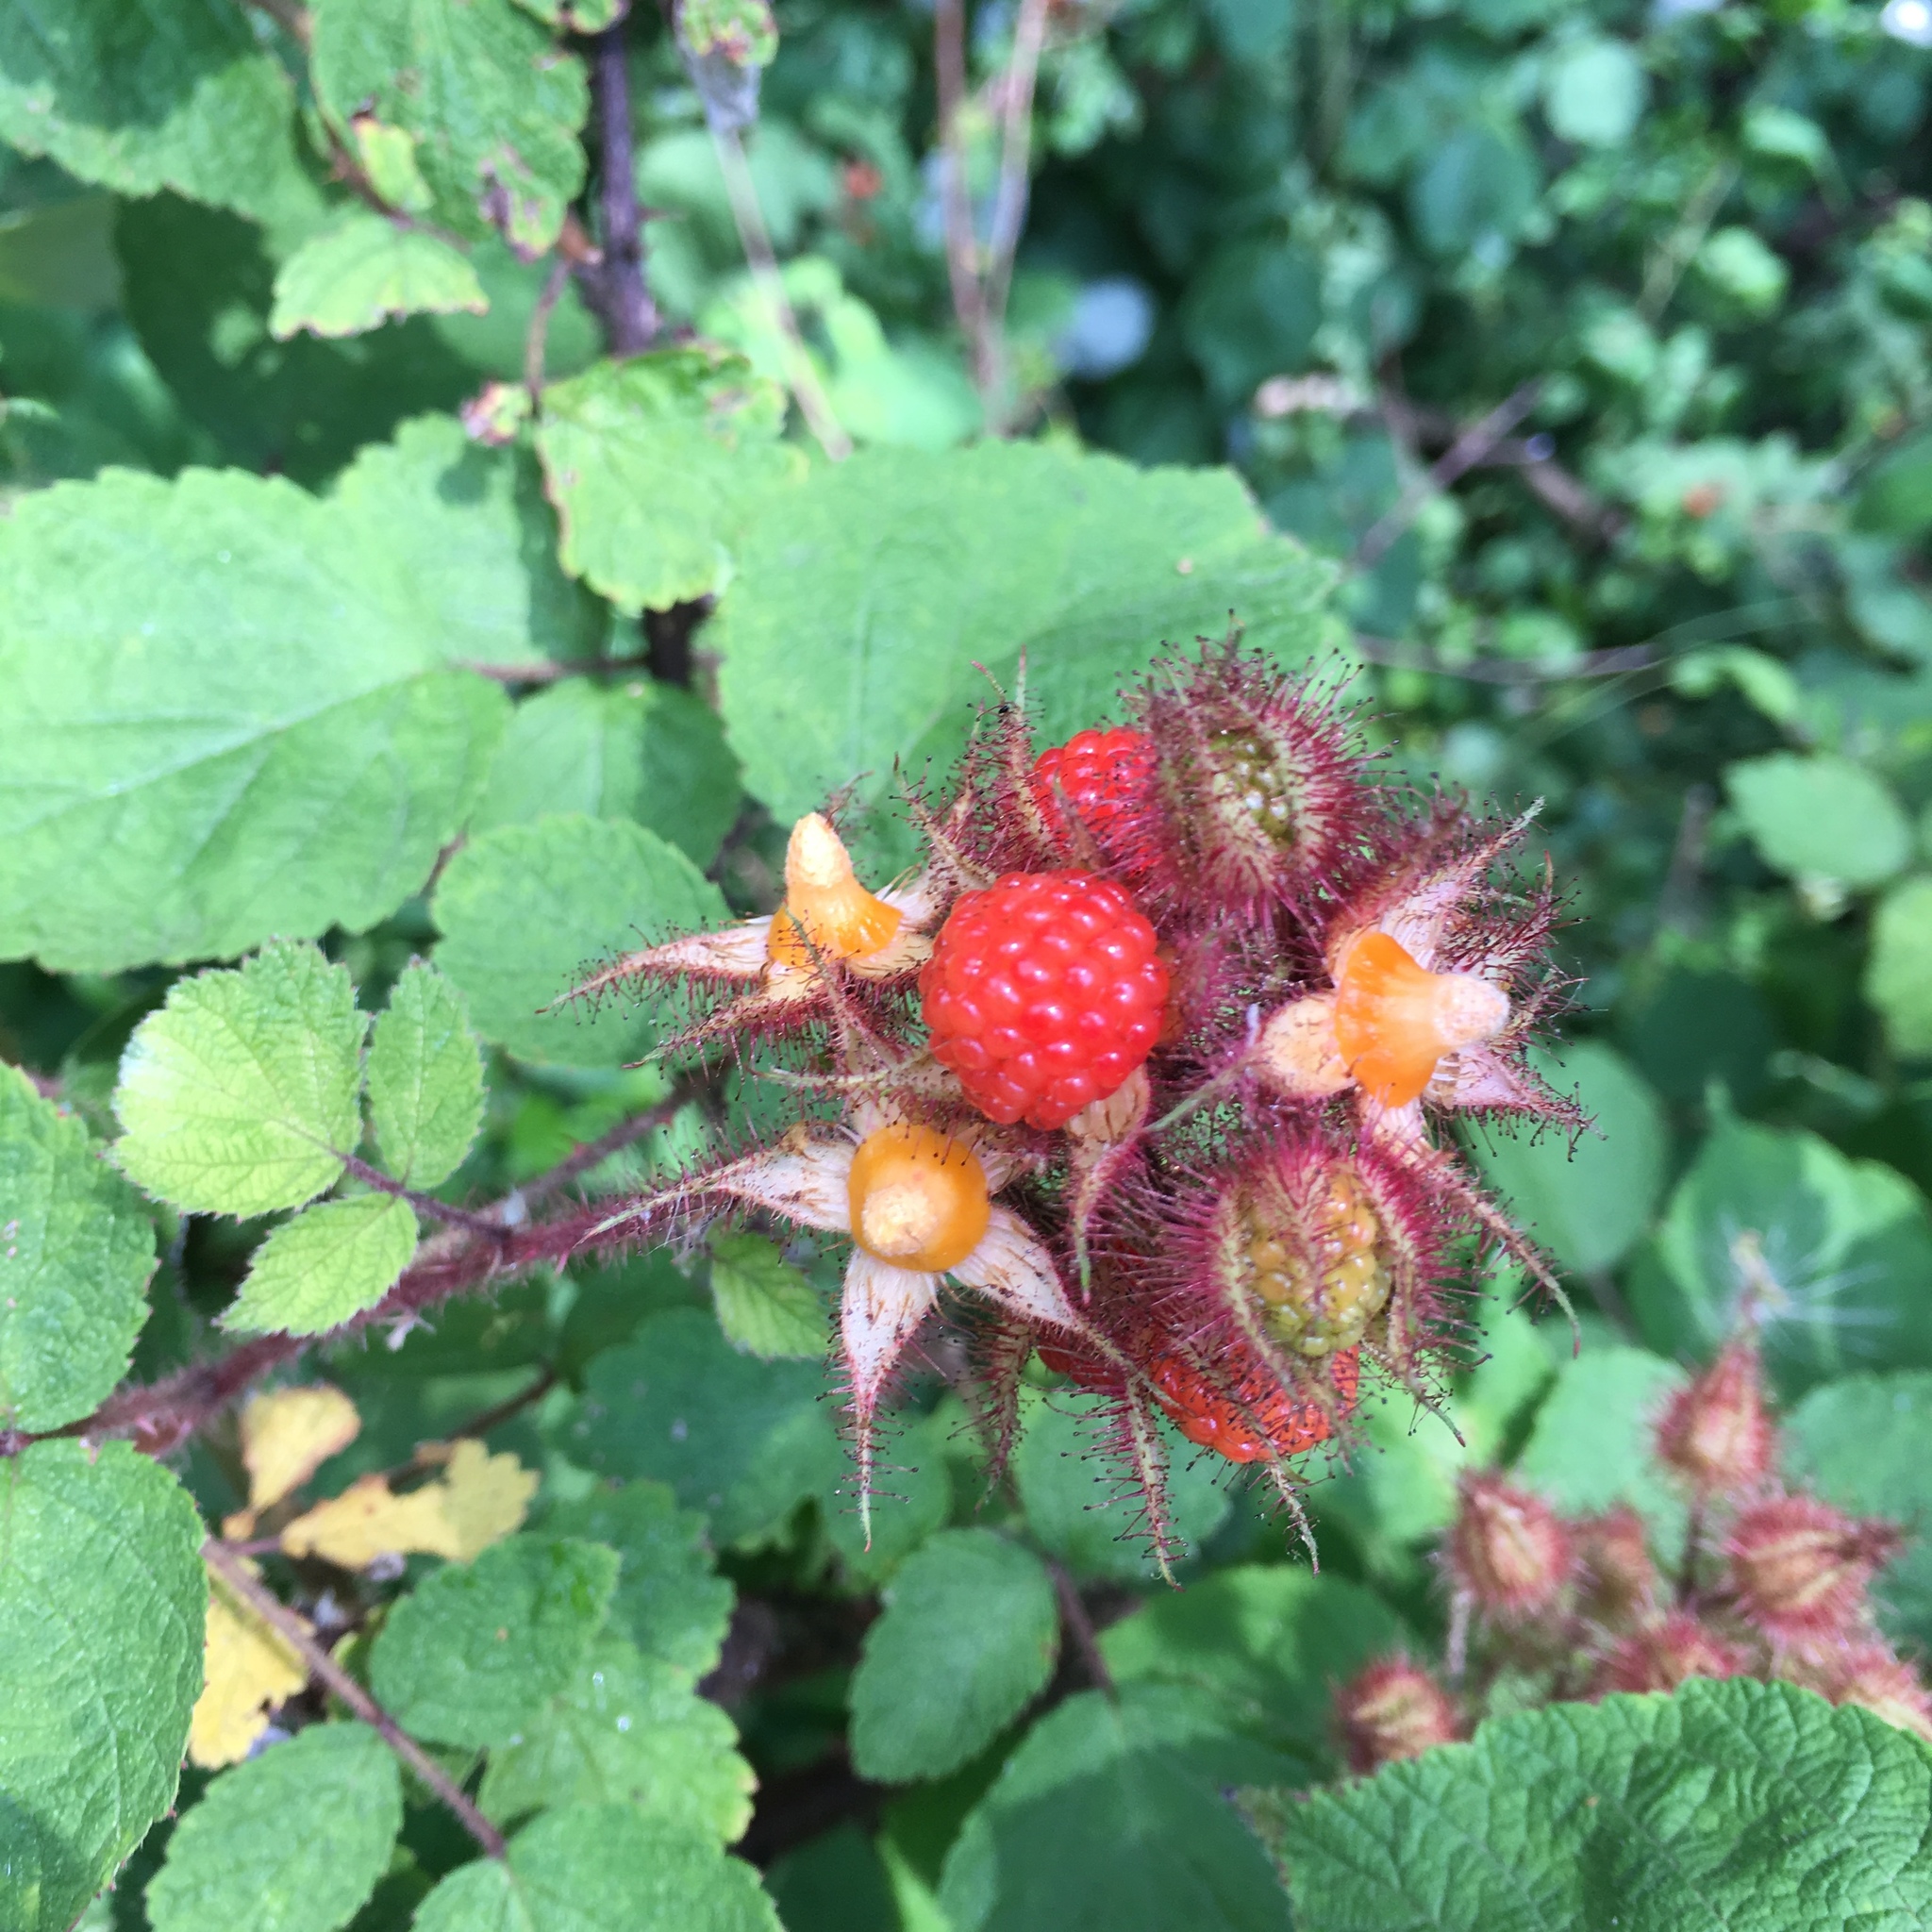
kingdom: Plantae
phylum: Tracheophyta
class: Magnoliopsida
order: Rosales
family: Rosaceae
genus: Rubus
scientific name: Rubus phoenicolasius
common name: Japanese wineberry
